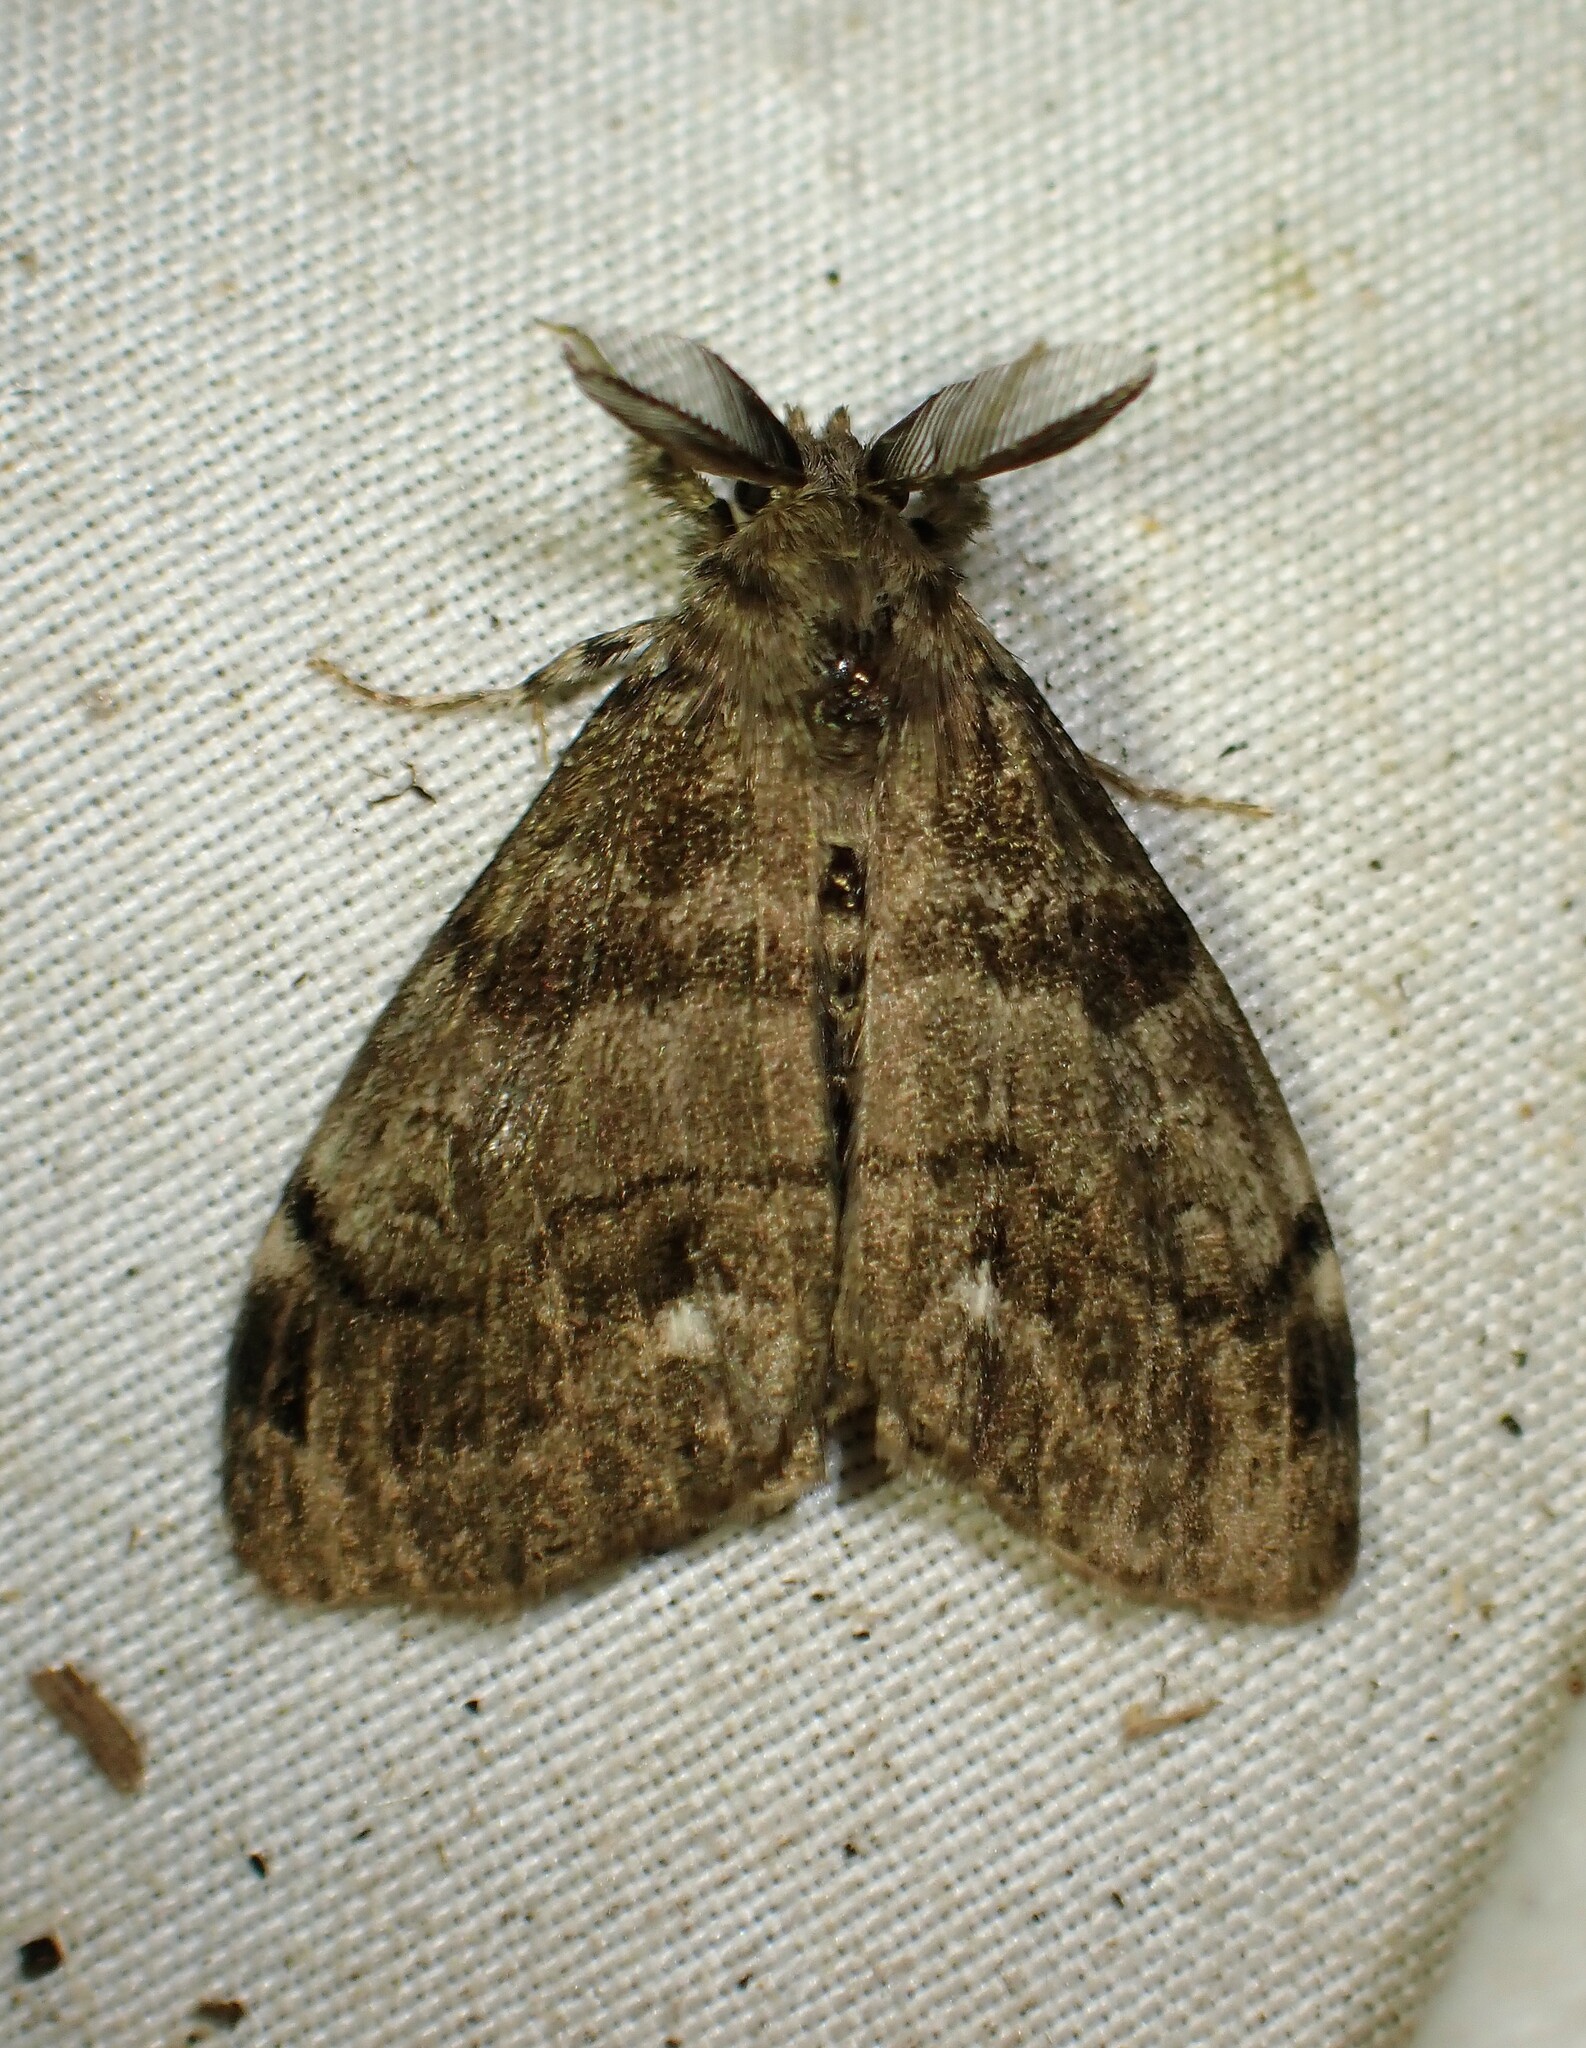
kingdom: Animalia
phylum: Arthropoda
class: Insecta
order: Lepidoptera
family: Erebidae
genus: Orgyia
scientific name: Orgyia leucostigma
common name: White-marked tussock moth
